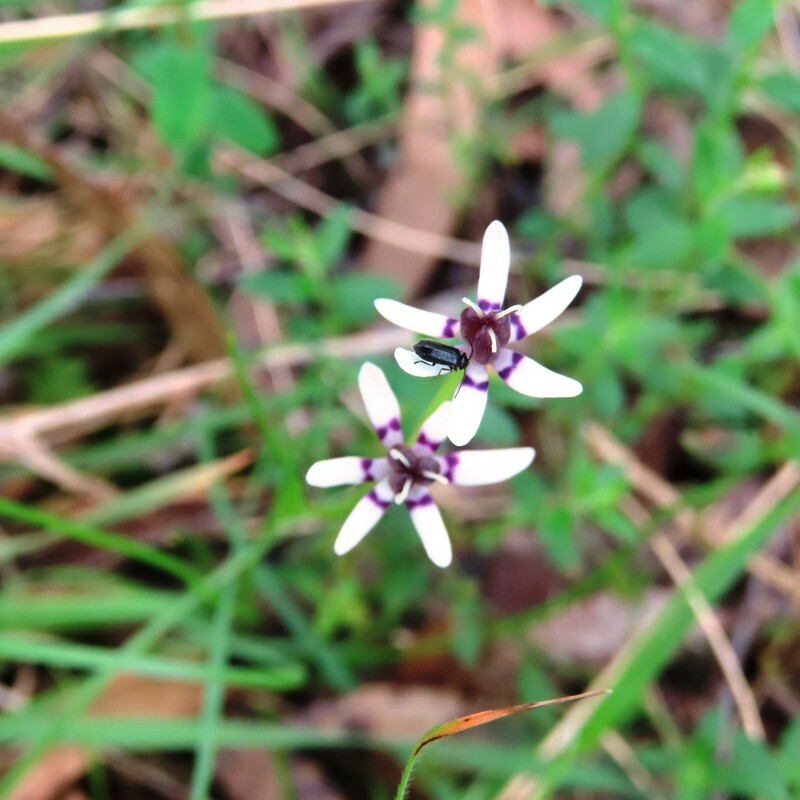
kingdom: Plantae
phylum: Tracheophyta
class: Liliopsida
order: Liliales
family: Colchicaceae
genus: Wurmbea
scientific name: Wurmbea dioica
